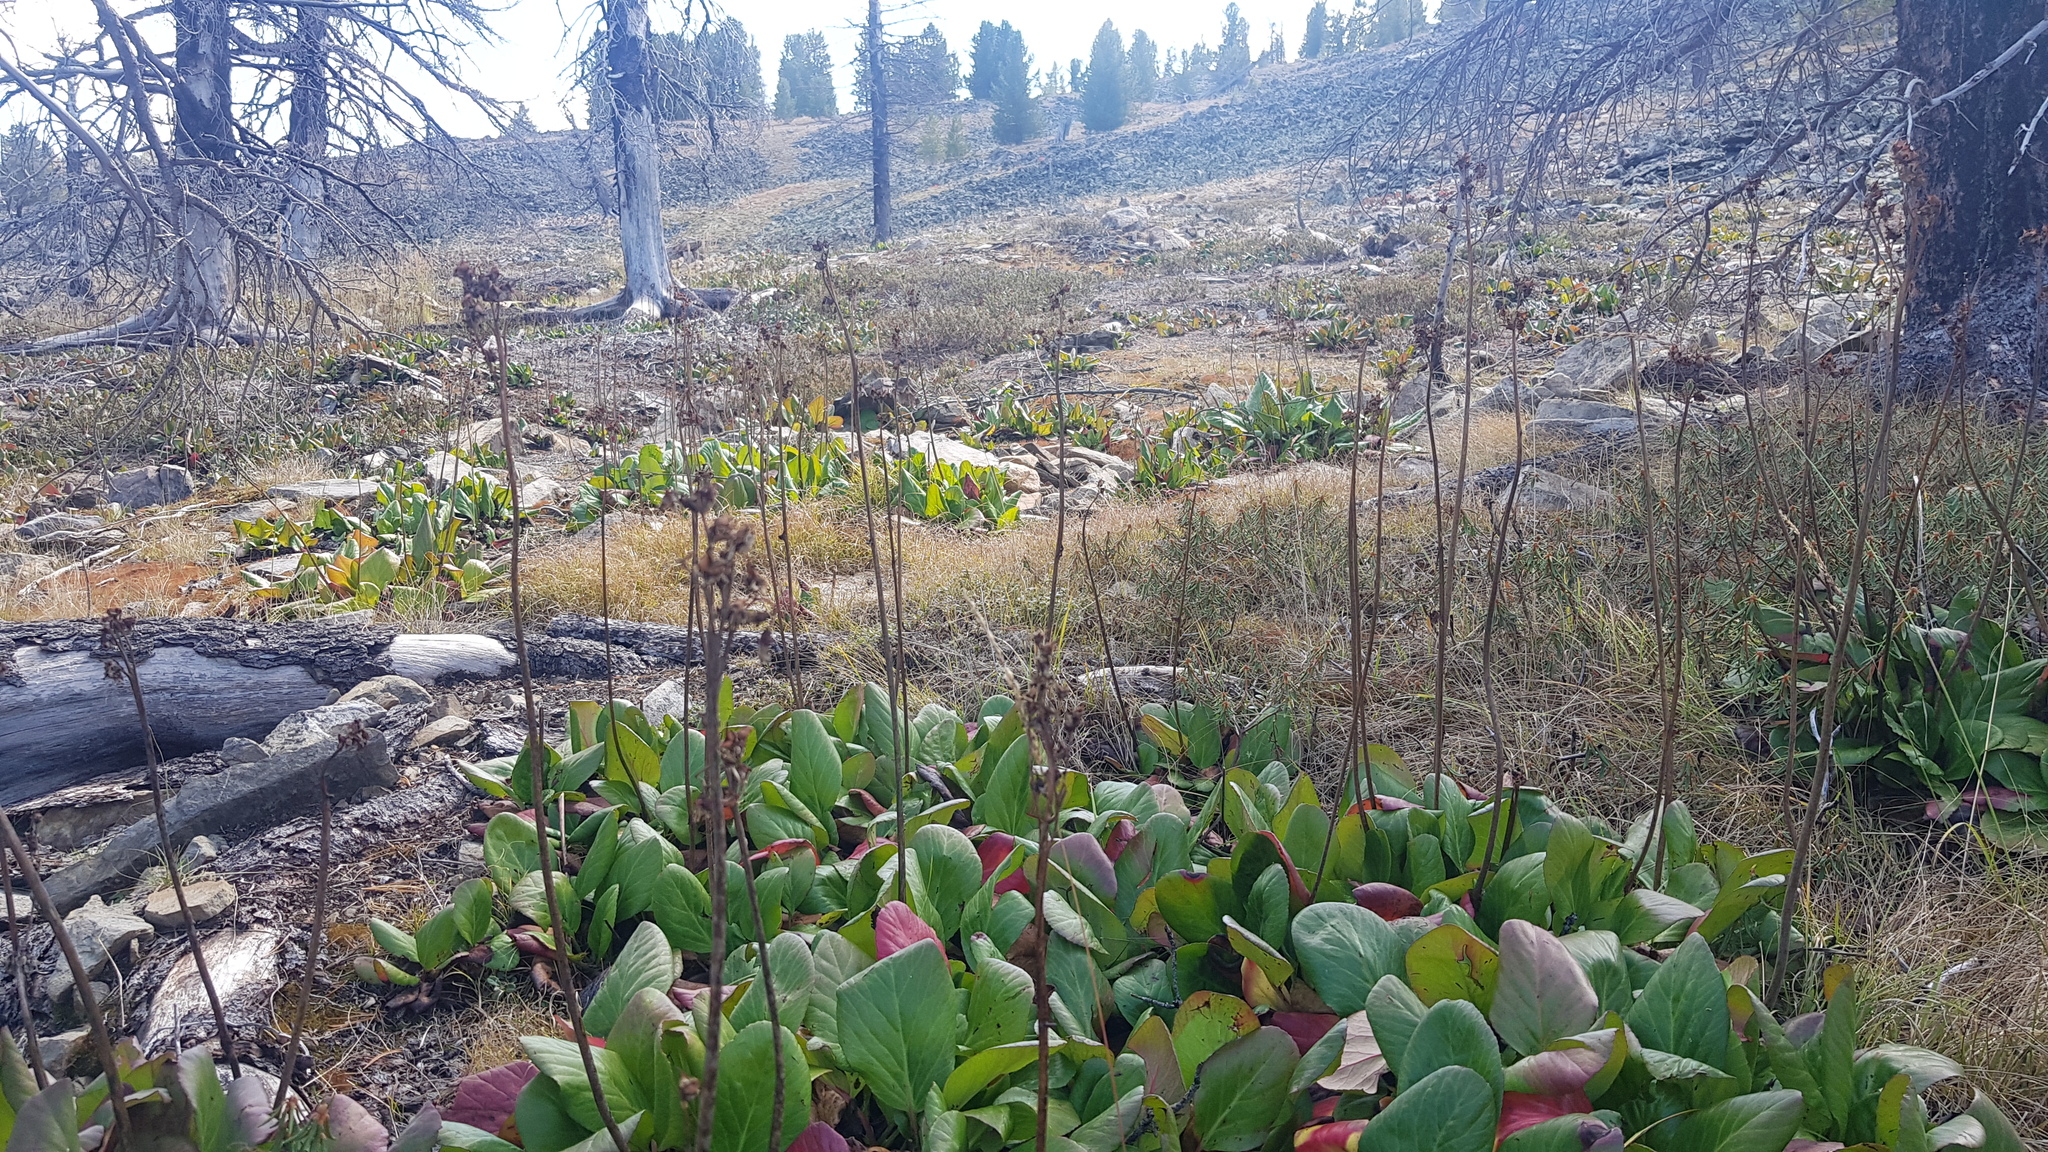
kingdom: Plantae
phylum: Tracheophyta
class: Magnoliopsida
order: Saxifragales
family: Saxifragaceae
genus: Bergenia
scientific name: Bergenia crassifolia
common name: Elephant-ears
